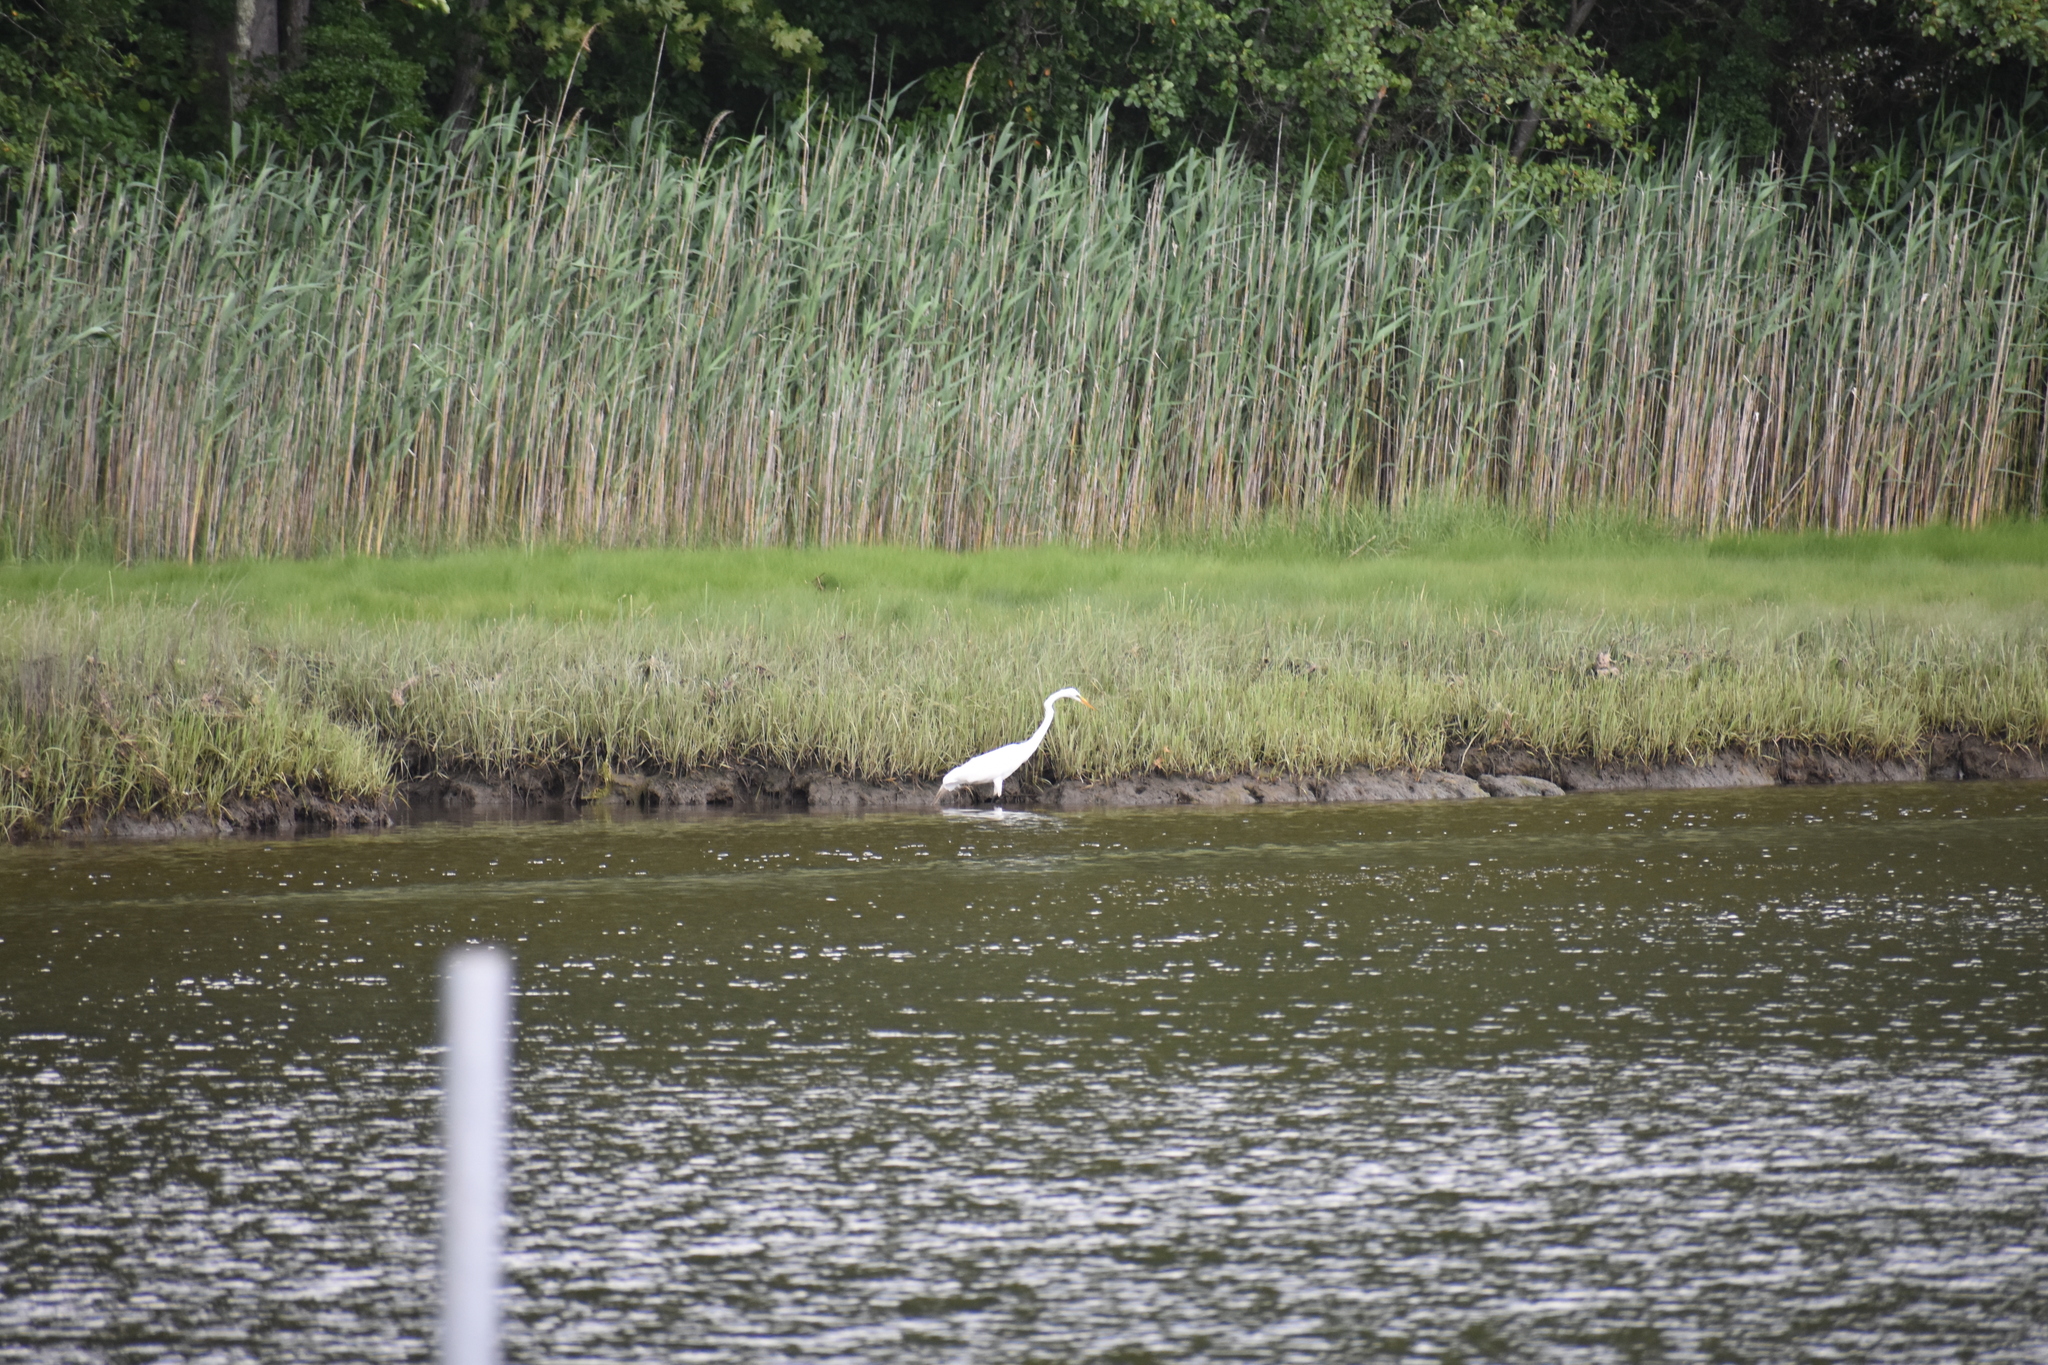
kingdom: Animalia
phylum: Chordata
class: Aves
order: Pelecaniformes
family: Ardeidae
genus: Ardea
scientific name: Ardea alba
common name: Great egret
